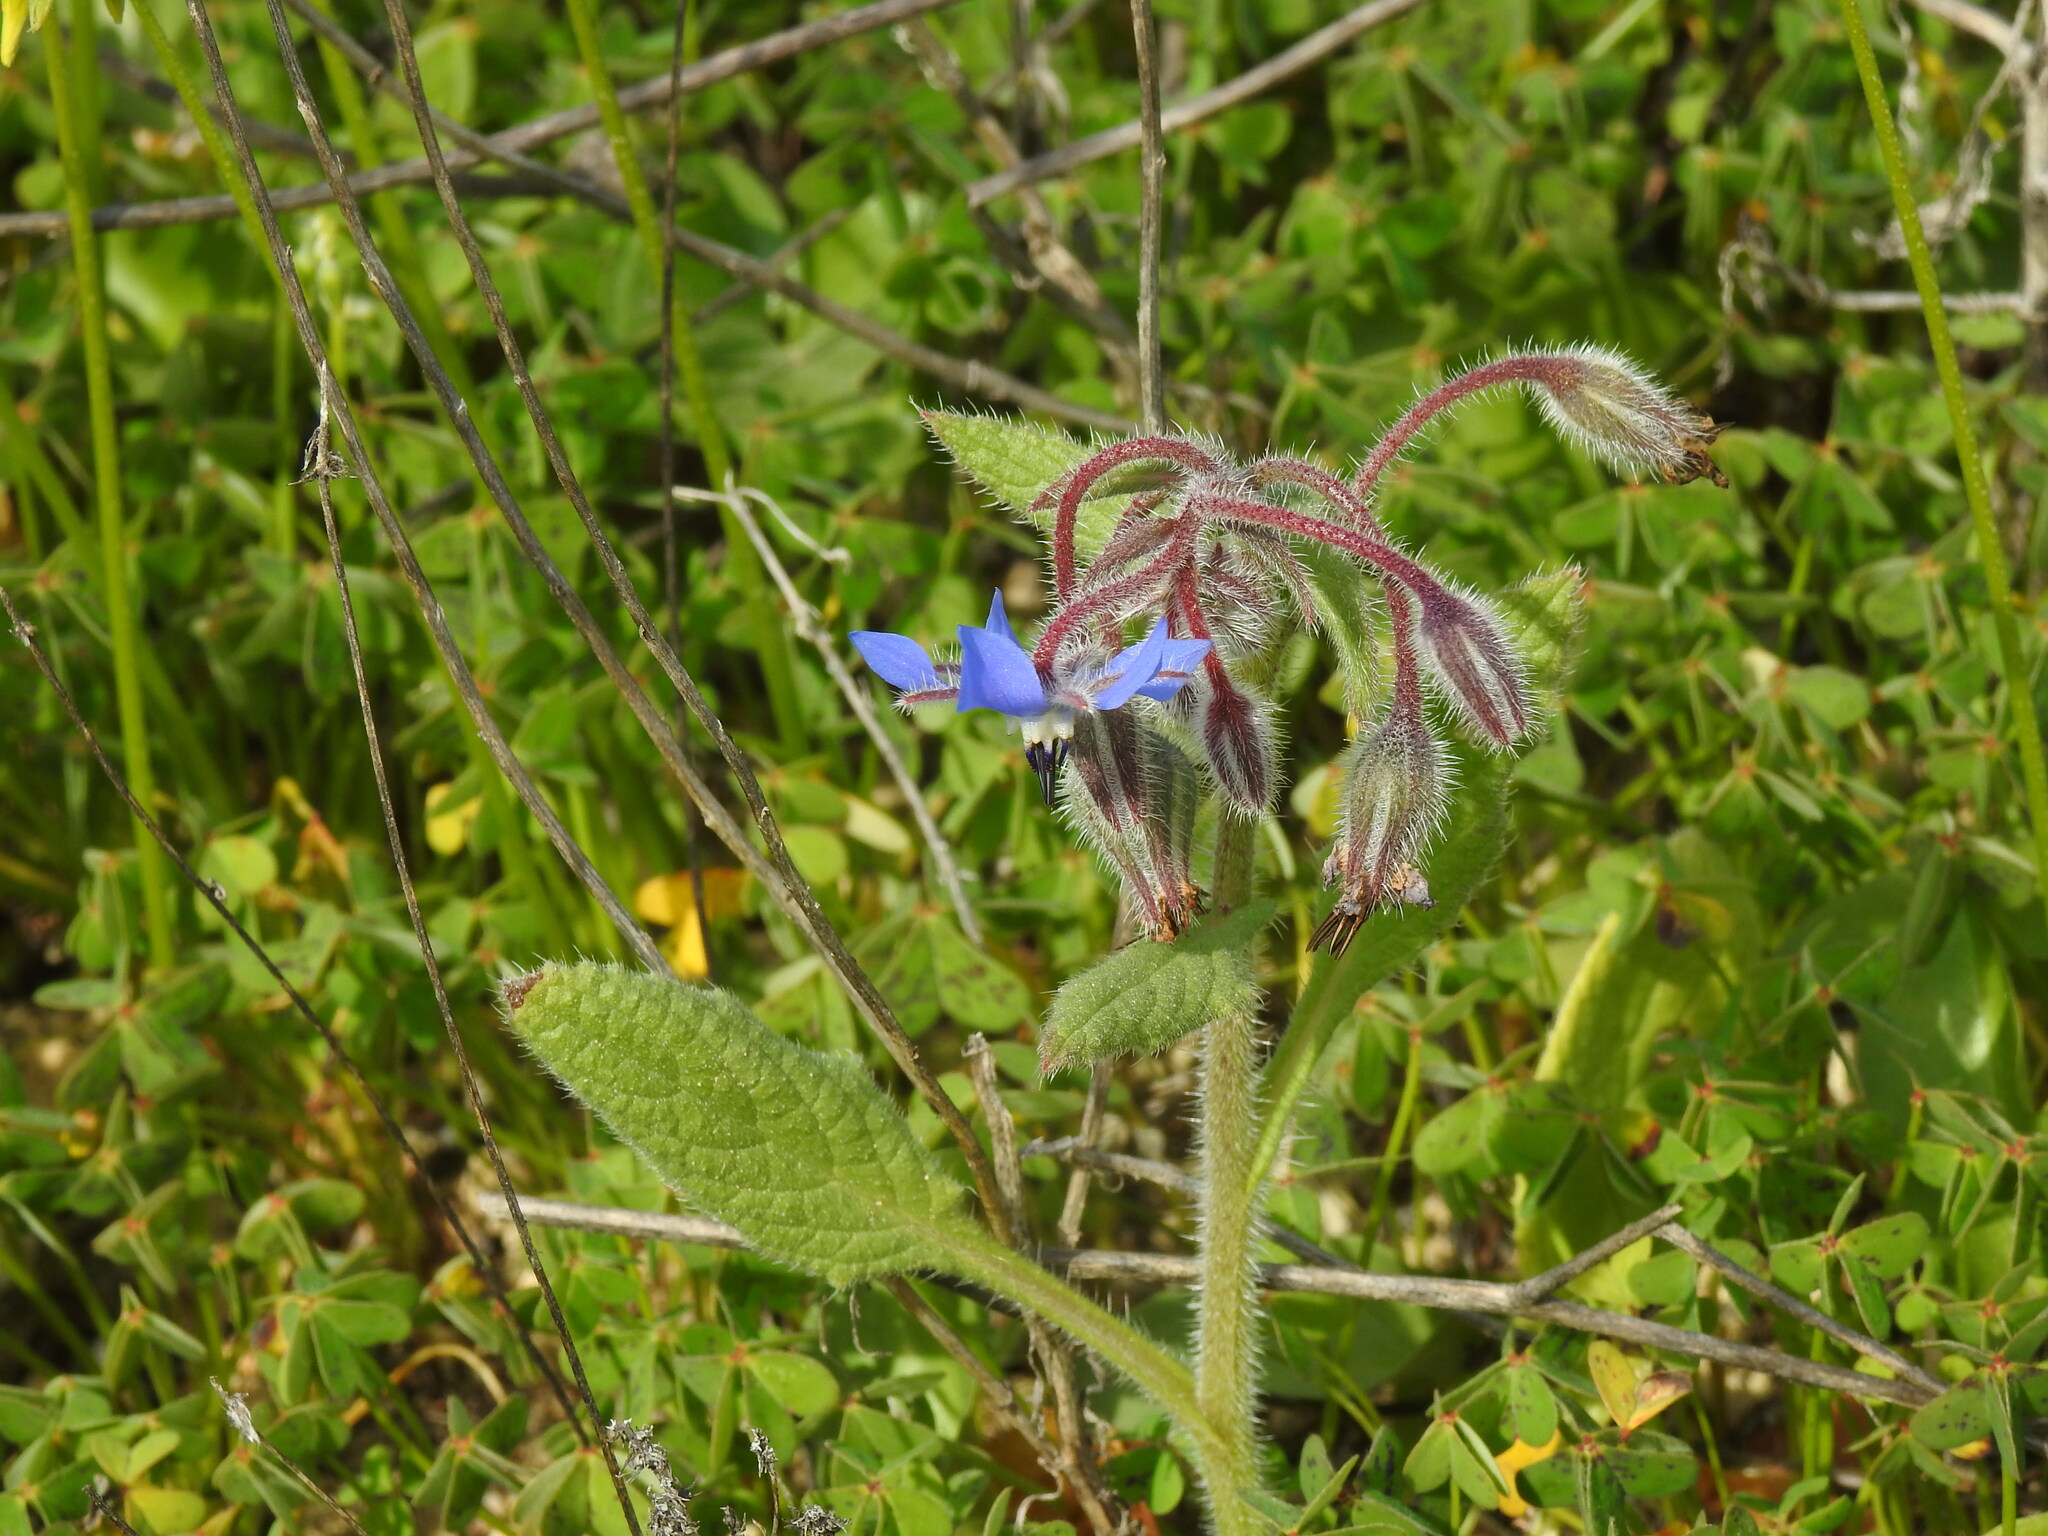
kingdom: Plantae
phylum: Tracheophyta
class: Magnoliopsida
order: Boraginales
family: Boraginaceae
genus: Borago
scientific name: Borago officinalis
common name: Borage
